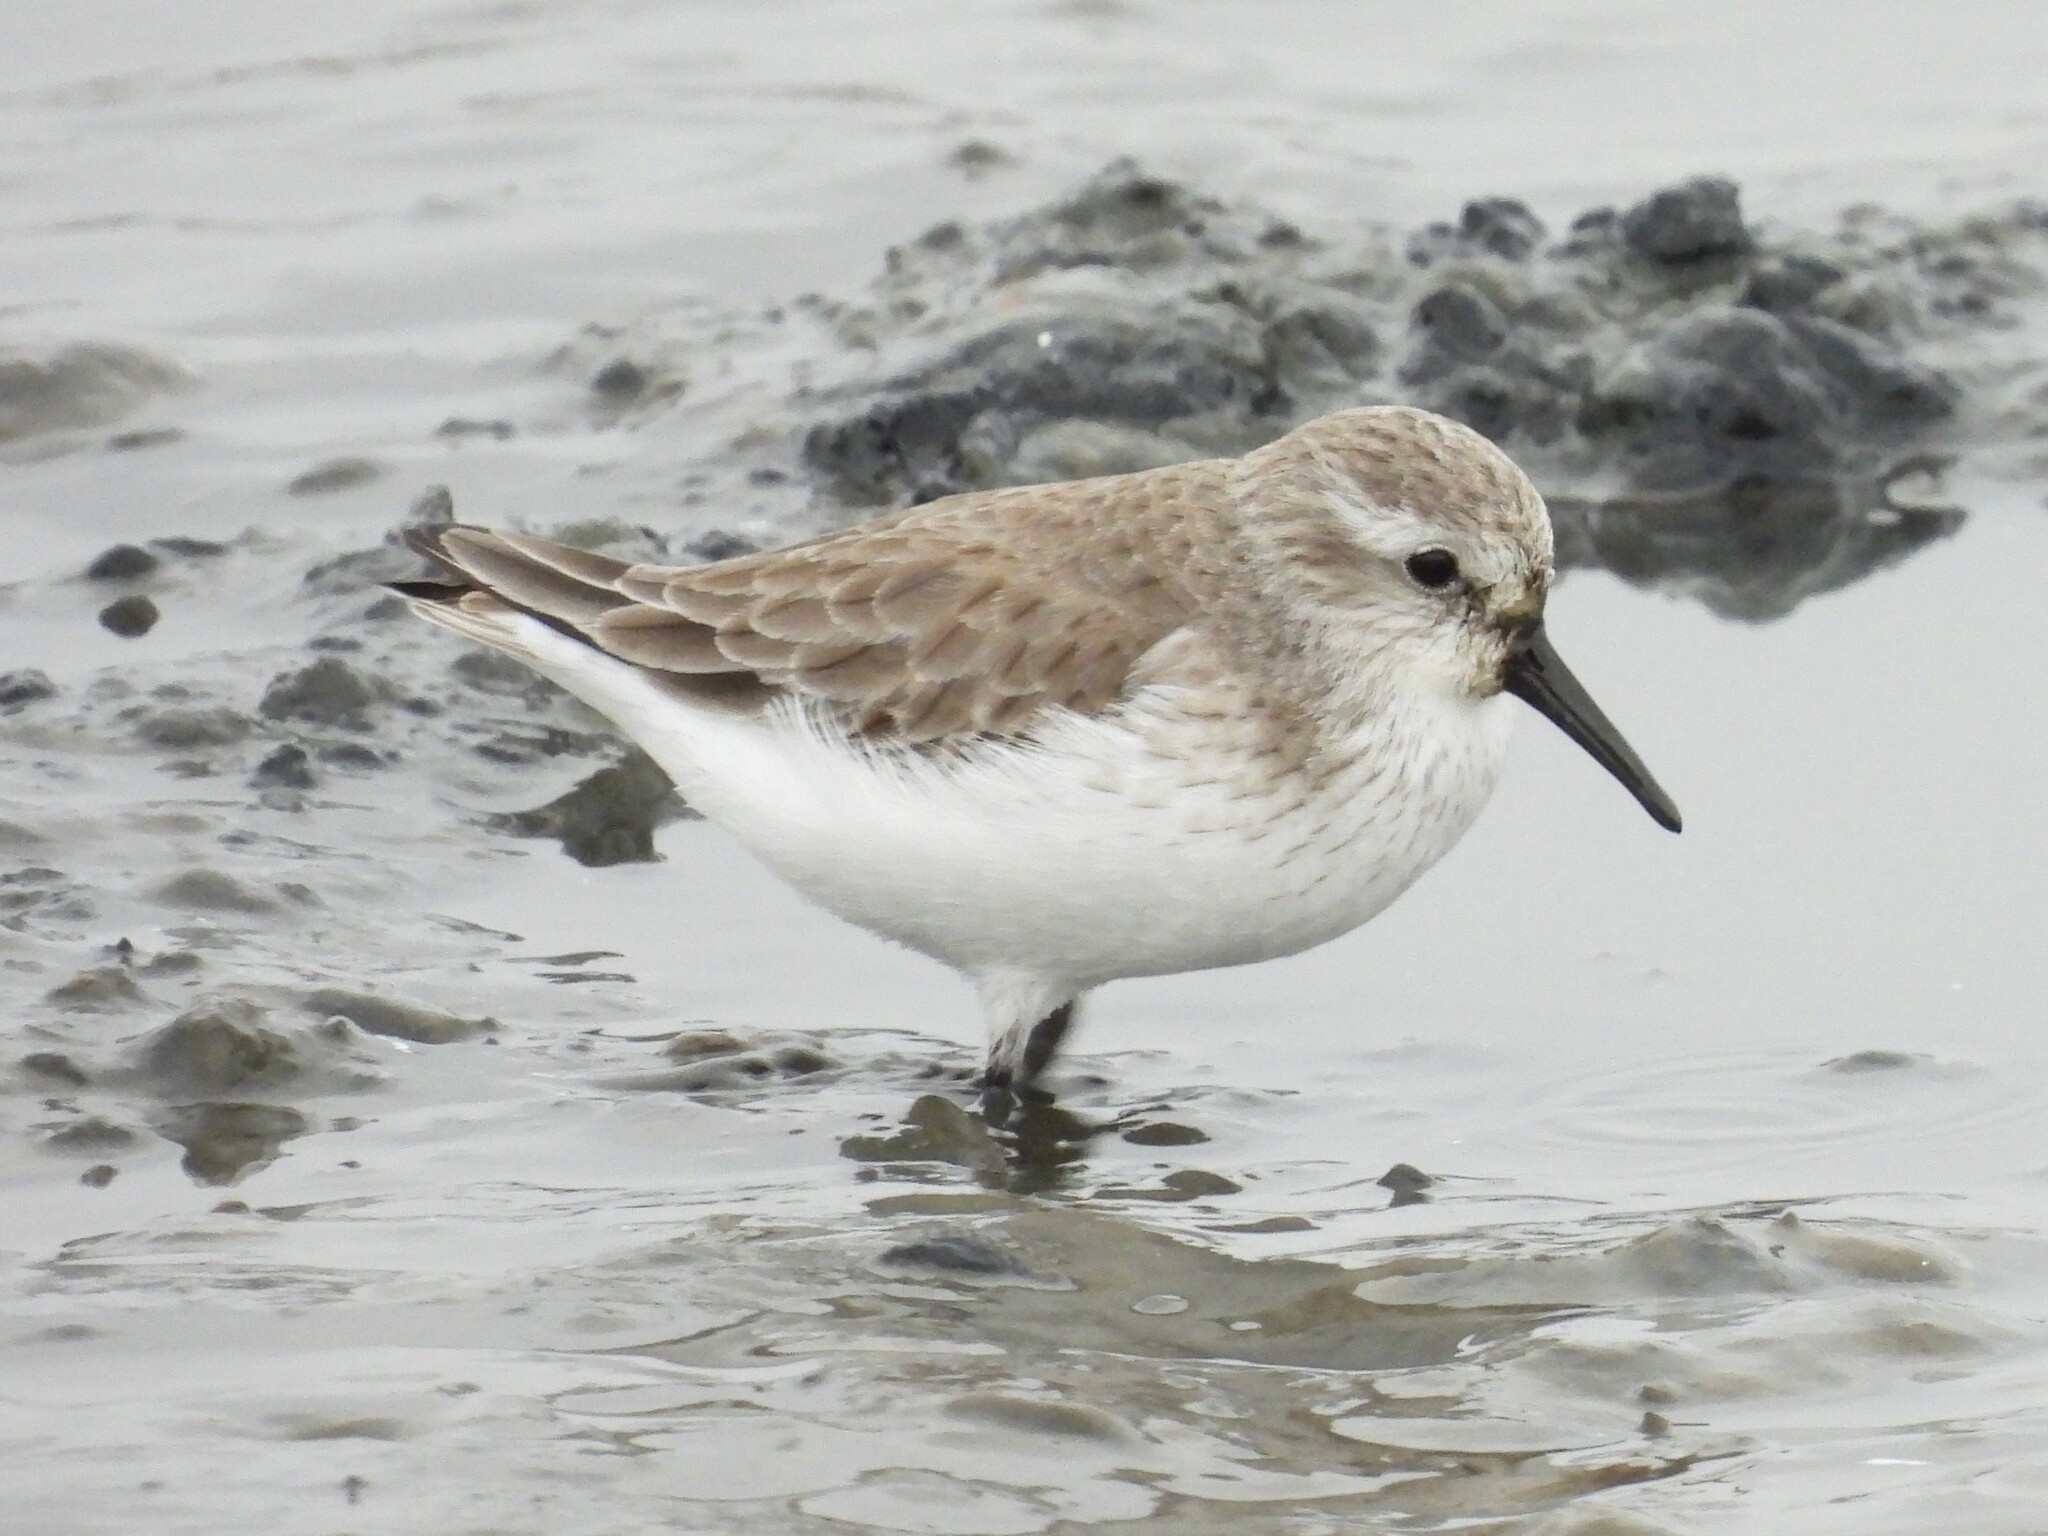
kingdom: Animalia
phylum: Chordata
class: Aves
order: Charadriiformes
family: Scolopacidae
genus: Calidris
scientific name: Calidris mauri
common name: Western sandpiper
